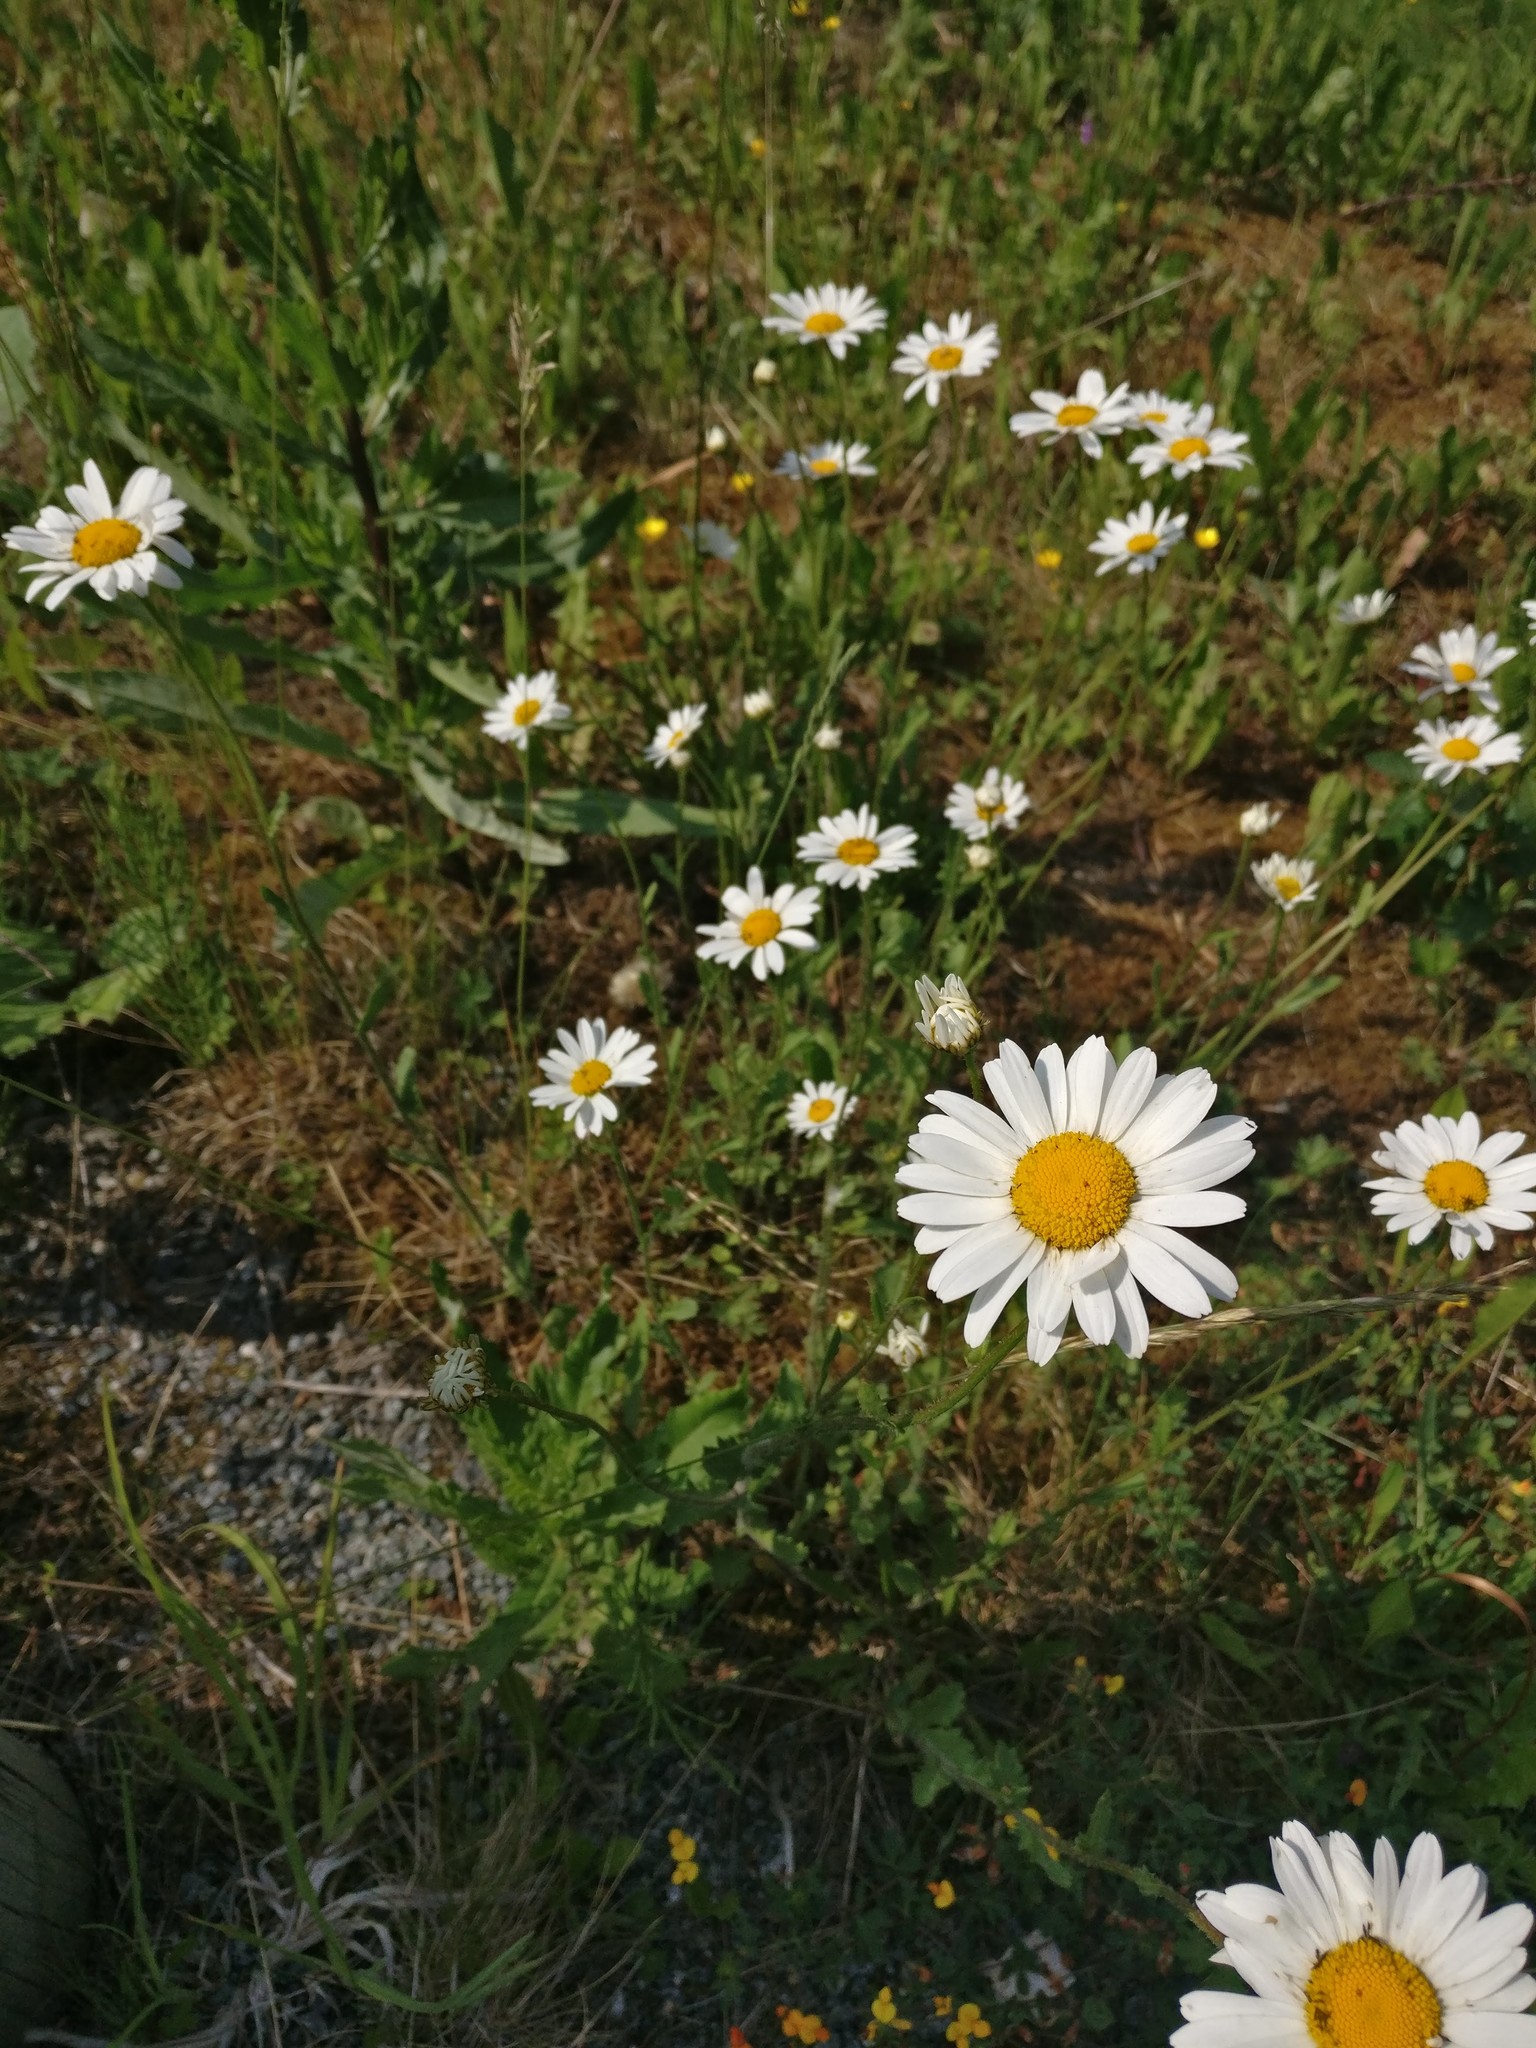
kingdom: Plantae
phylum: Tracheophyta
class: Magnoliopsida
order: Asterales
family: Asteraceae
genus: Leucanthemum
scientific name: Leucanthemum vulgare
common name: Oxeye daisy
